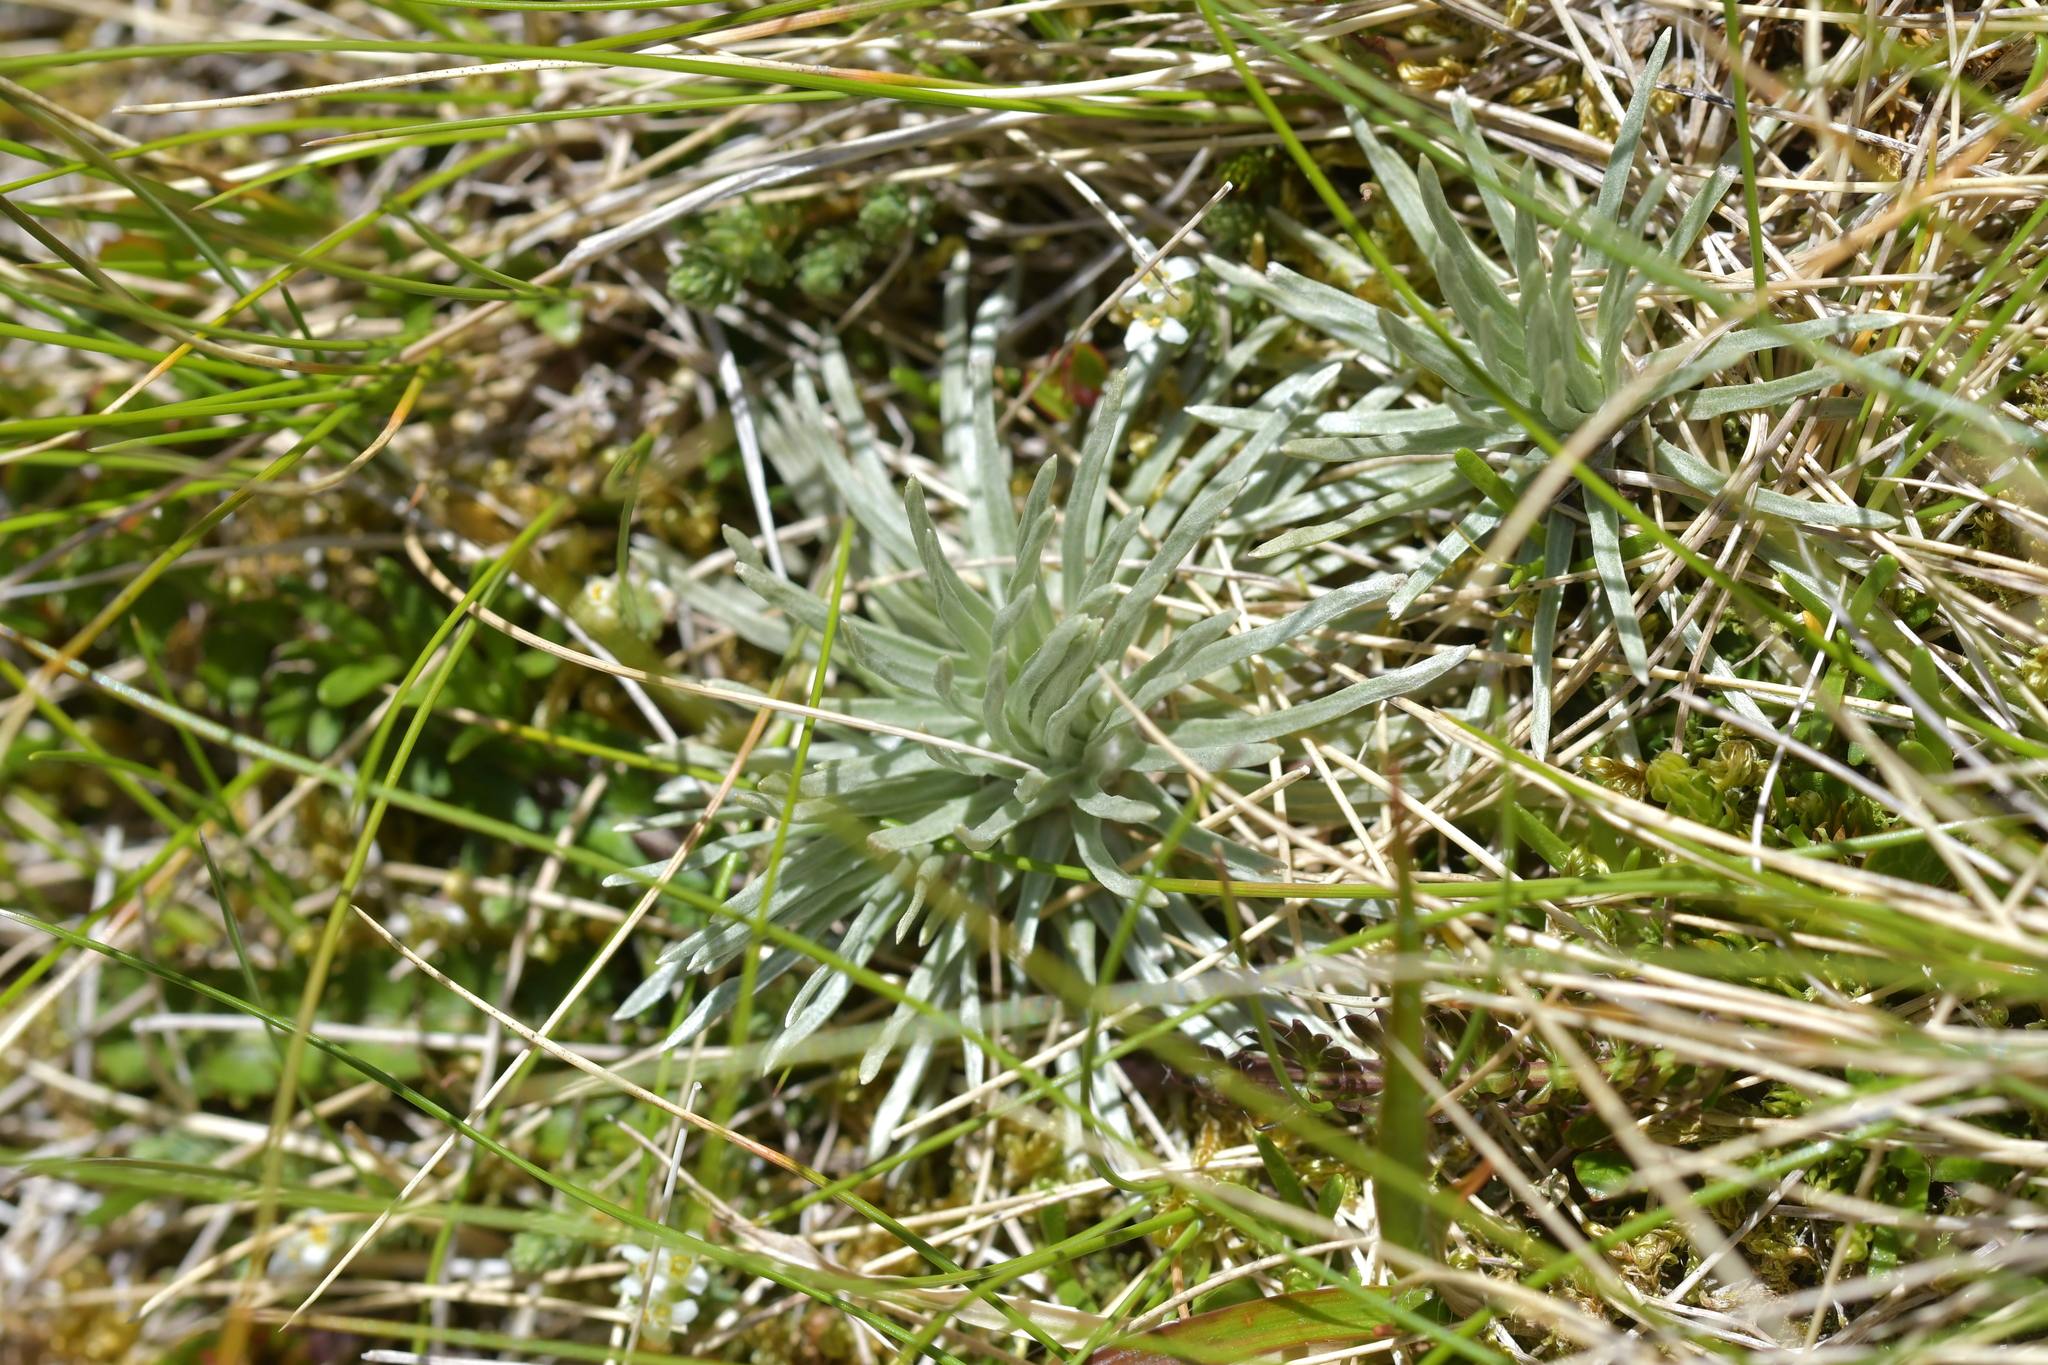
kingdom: Plantae
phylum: Tracheophyta
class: Magnoliopsida
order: Asterales
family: Asteraceae
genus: Celmisia
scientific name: Celmisia sessiliflora
